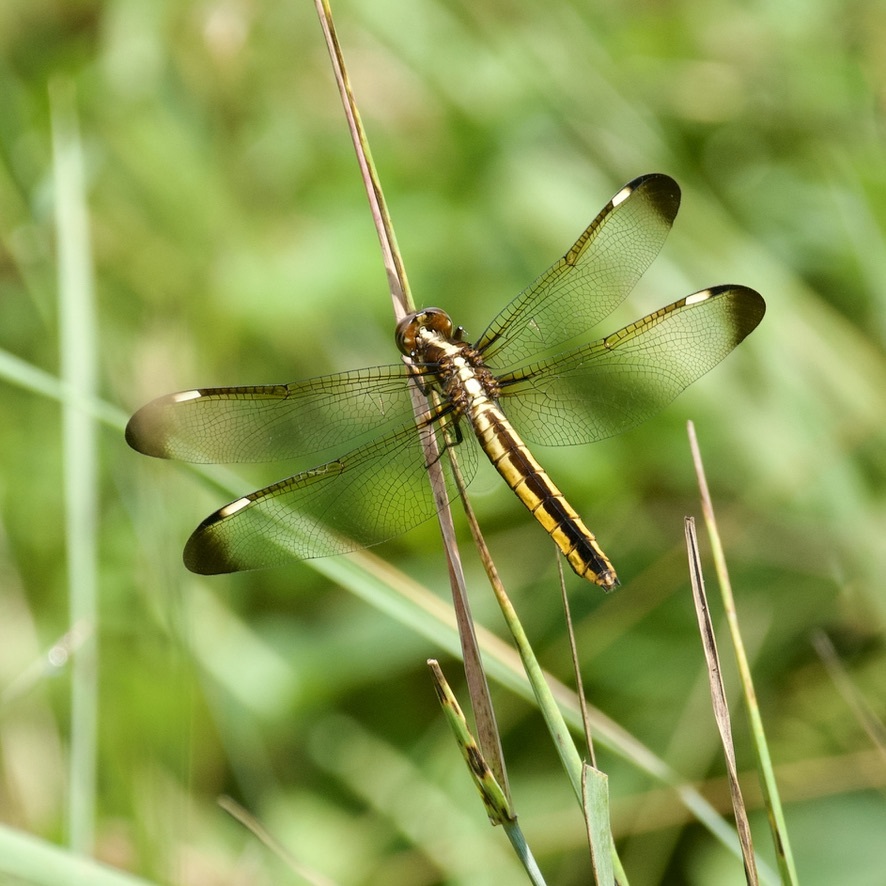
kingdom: Animalia
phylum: Arthropoda
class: Insecta
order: Odonata
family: Libellulidae
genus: Libellula
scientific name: Libellula cyanea
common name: Spangled skimmer
